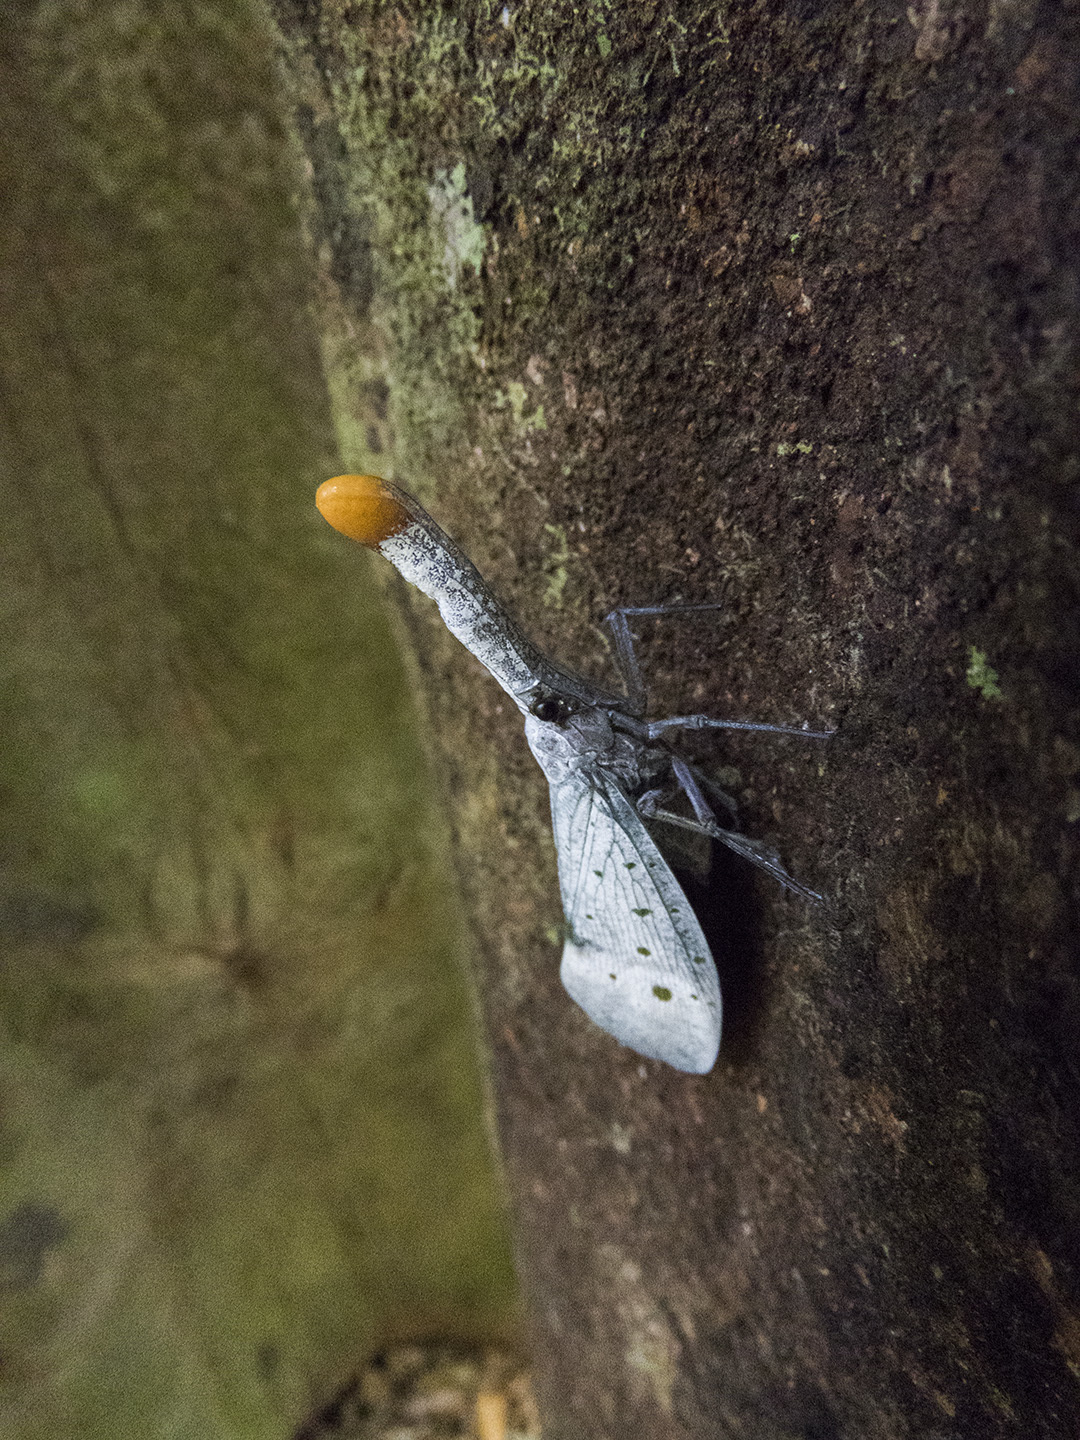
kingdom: Animalia
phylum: Arthropoda
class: Insecta
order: Hemiptera
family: Fulgoridae
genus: Pyrops
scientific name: Pyrops ruehli
